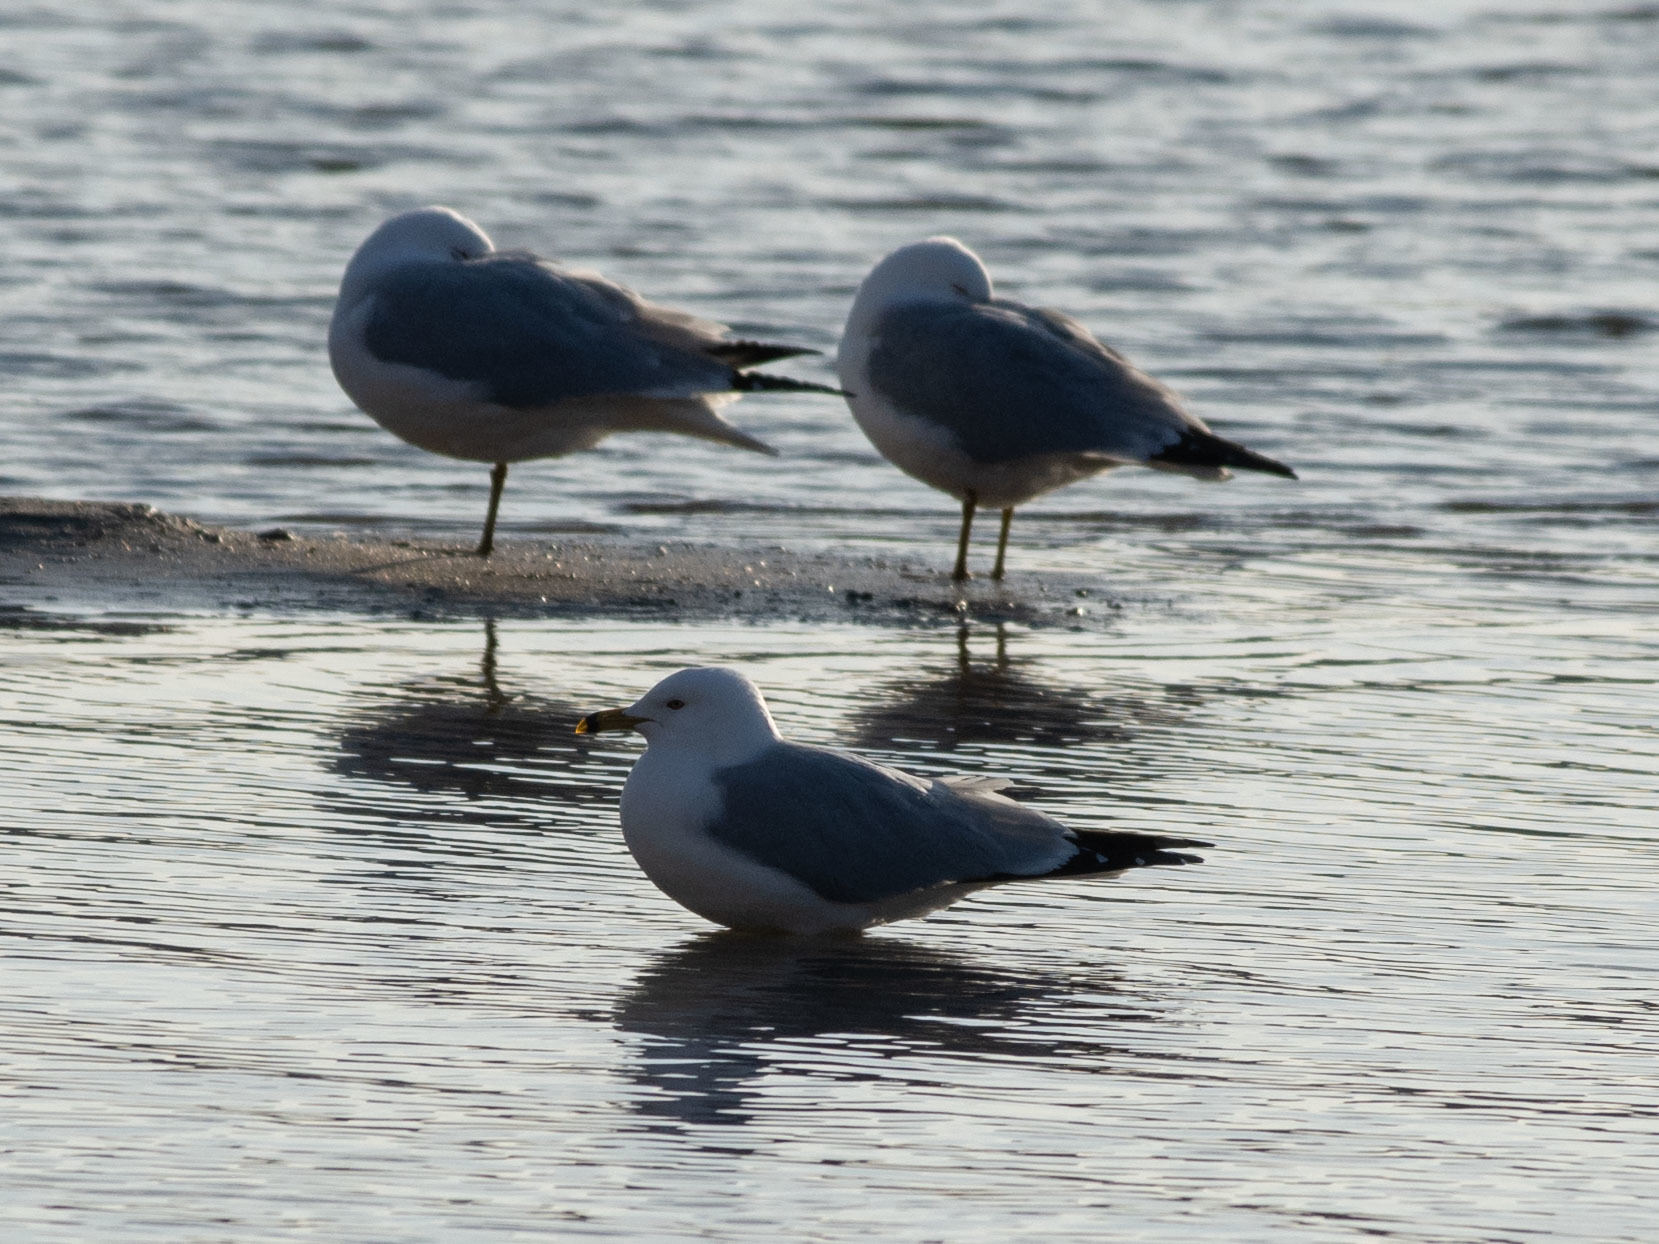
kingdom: Animalia
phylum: Chordata
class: Aves
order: Charadriiformes
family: Laridae
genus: Larus
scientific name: Larus delawarensis
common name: Ring-billed gull
